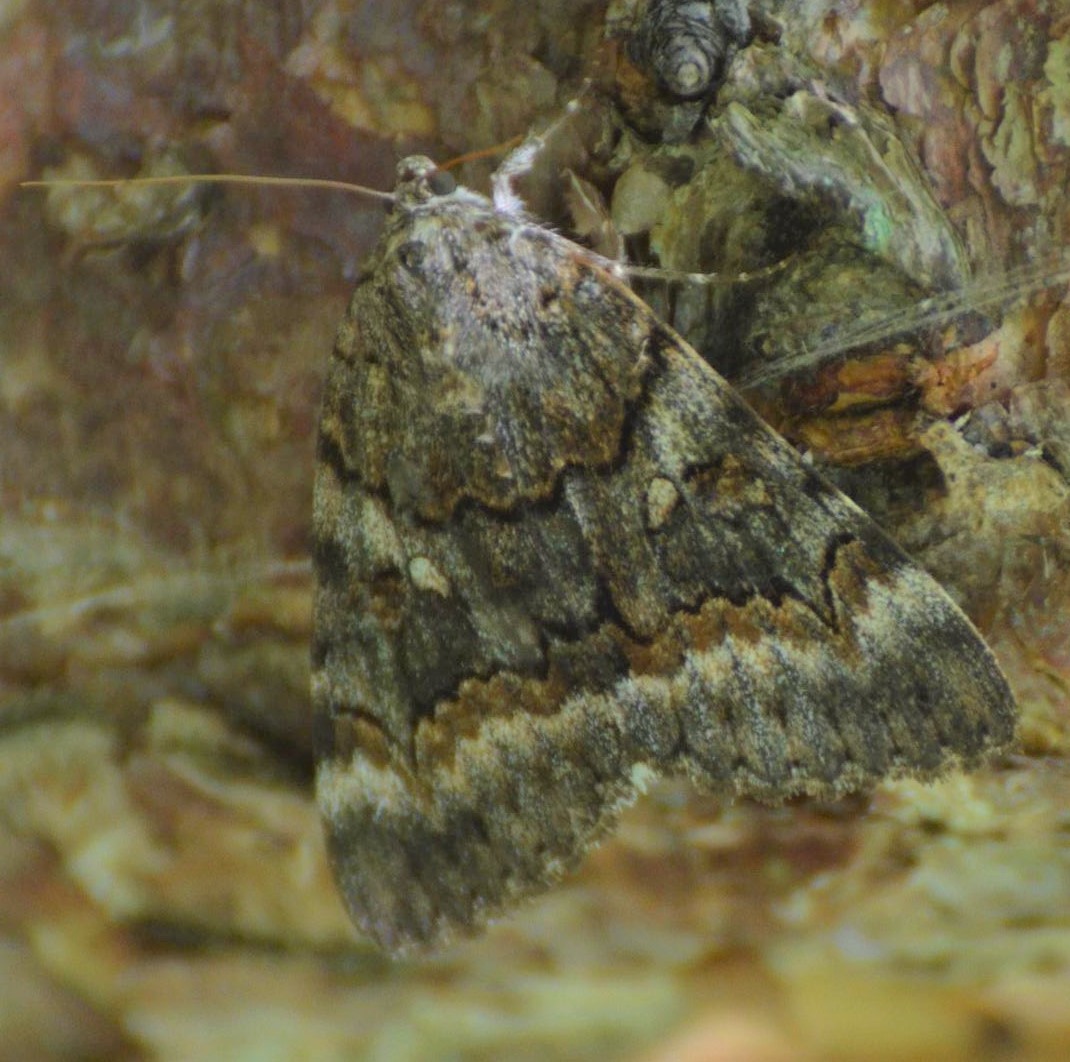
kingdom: Animalia
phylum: Arthropoda
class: Insecta
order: Lepidoptera
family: Erebidae
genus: Catocala
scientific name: Catocala epione
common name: Epione underwing
